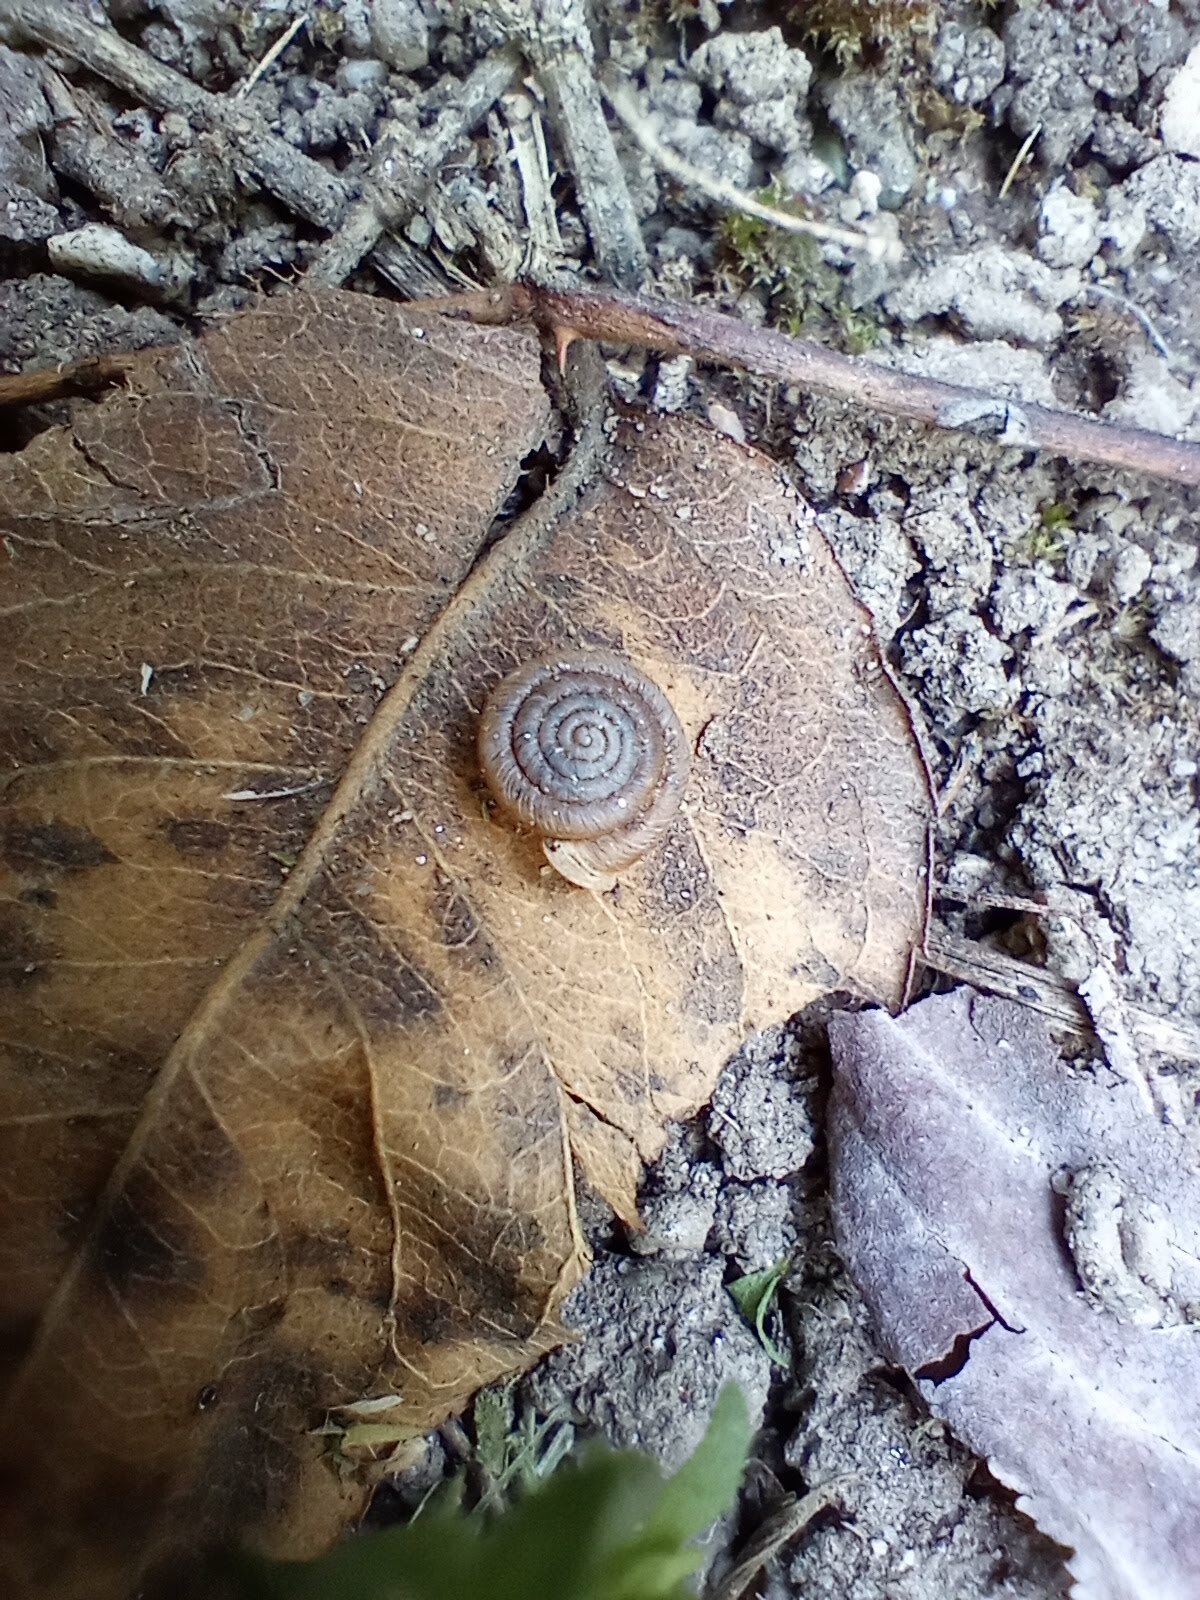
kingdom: Animalia
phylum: Mollusca
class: Gastropoda
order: Stylommatophora
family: Polygyridae
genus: Polygyra
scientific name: Polygyra cereolus
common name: Southern flatcone snail
